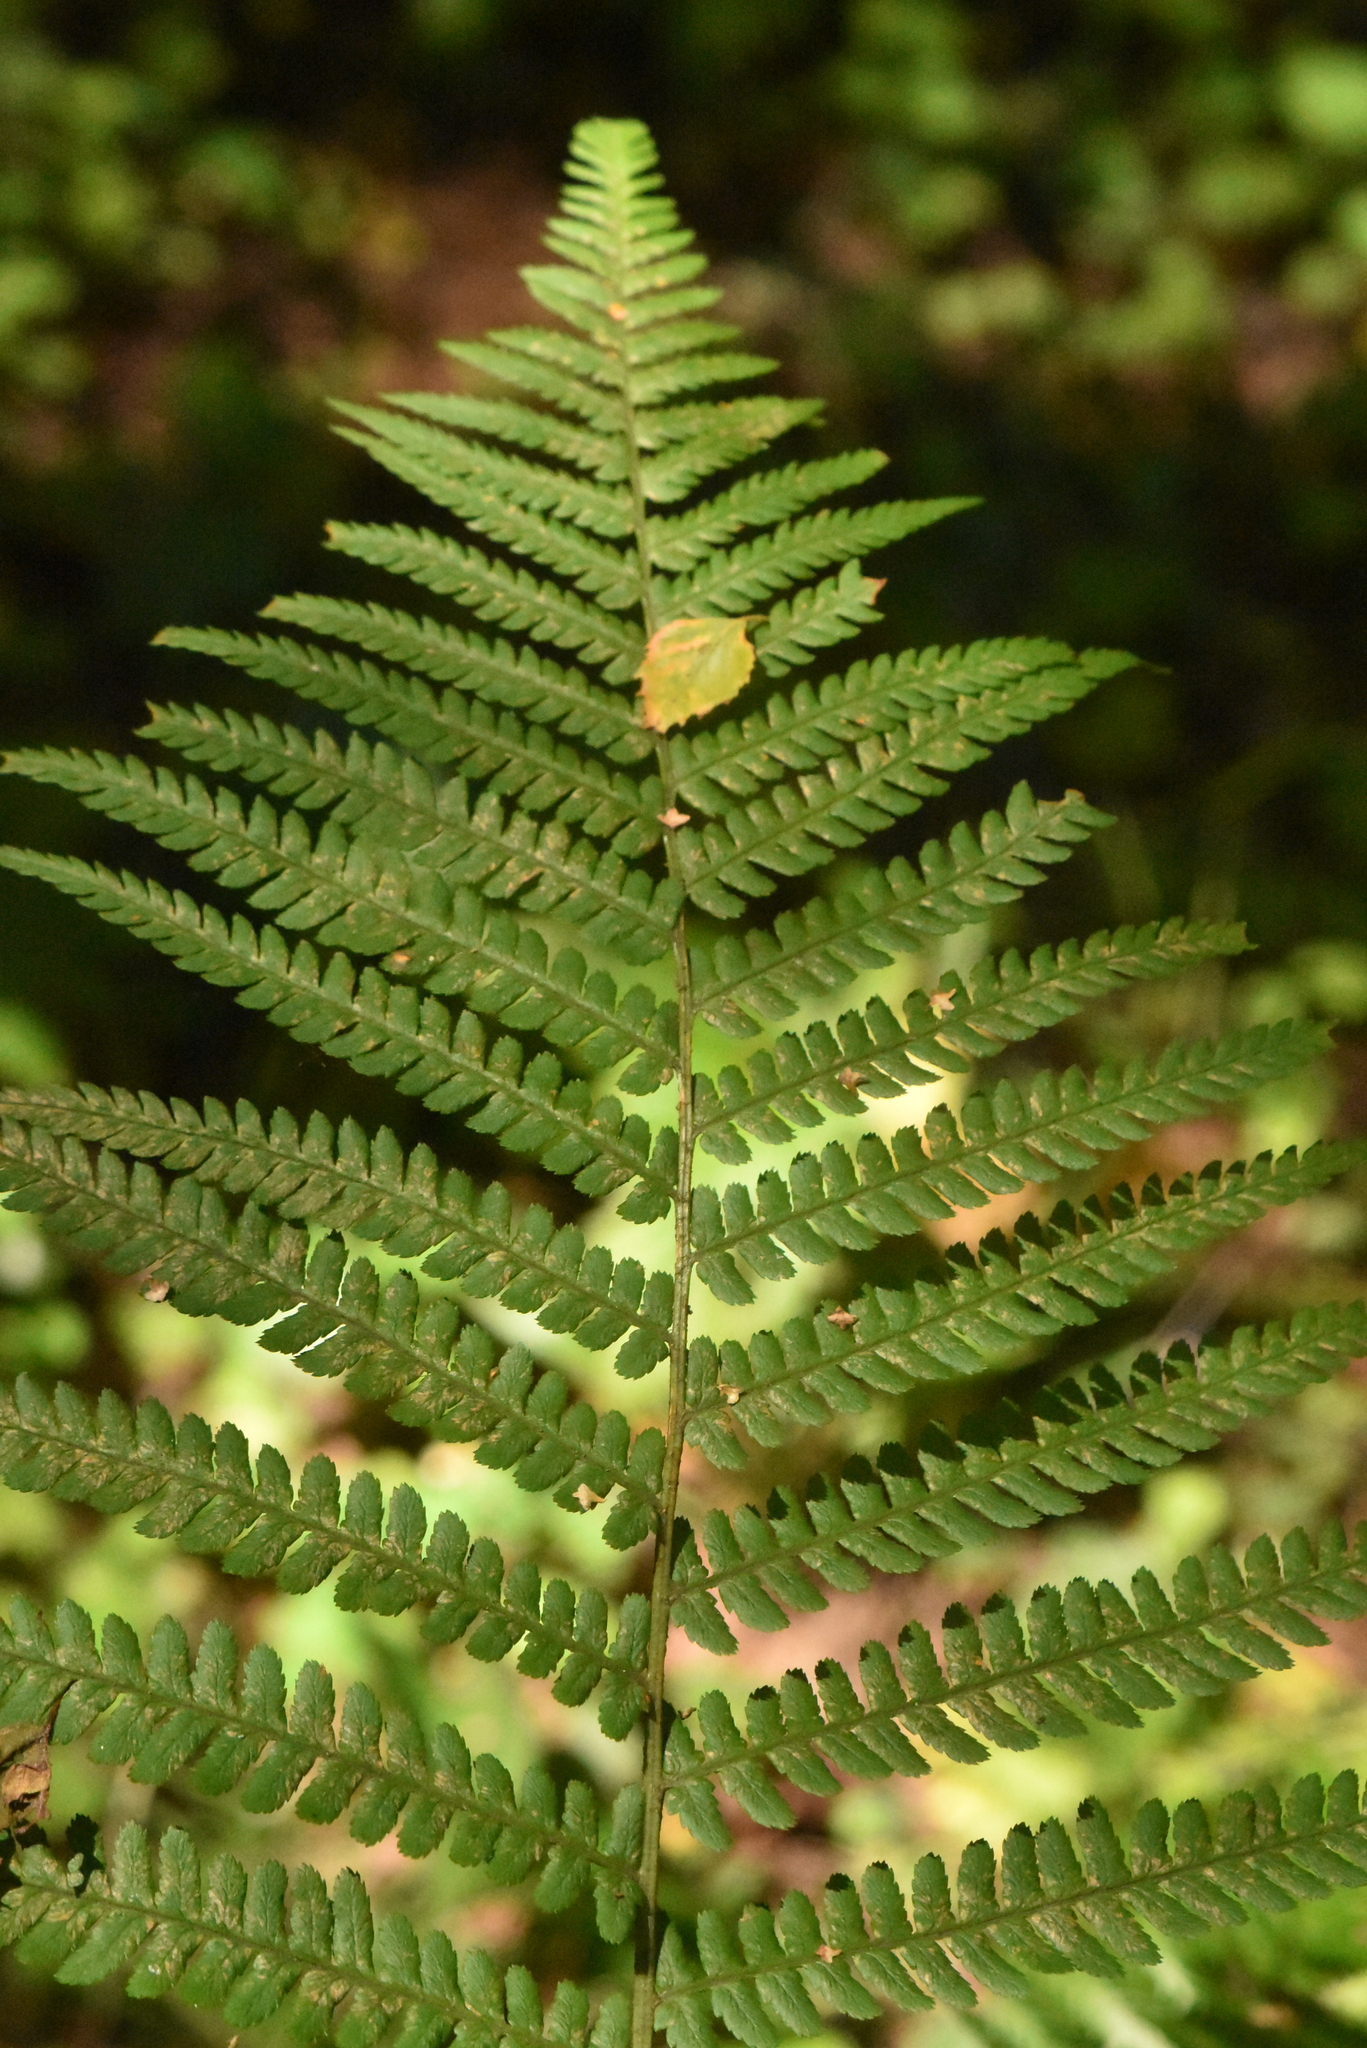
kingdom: Plantae
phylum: Tracheophyta
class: Polypodiopsida
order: Polypodiales
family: Dryopteridaceae
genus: Dryopteris
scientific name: Dryopteris filix-mas
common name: Male fern
